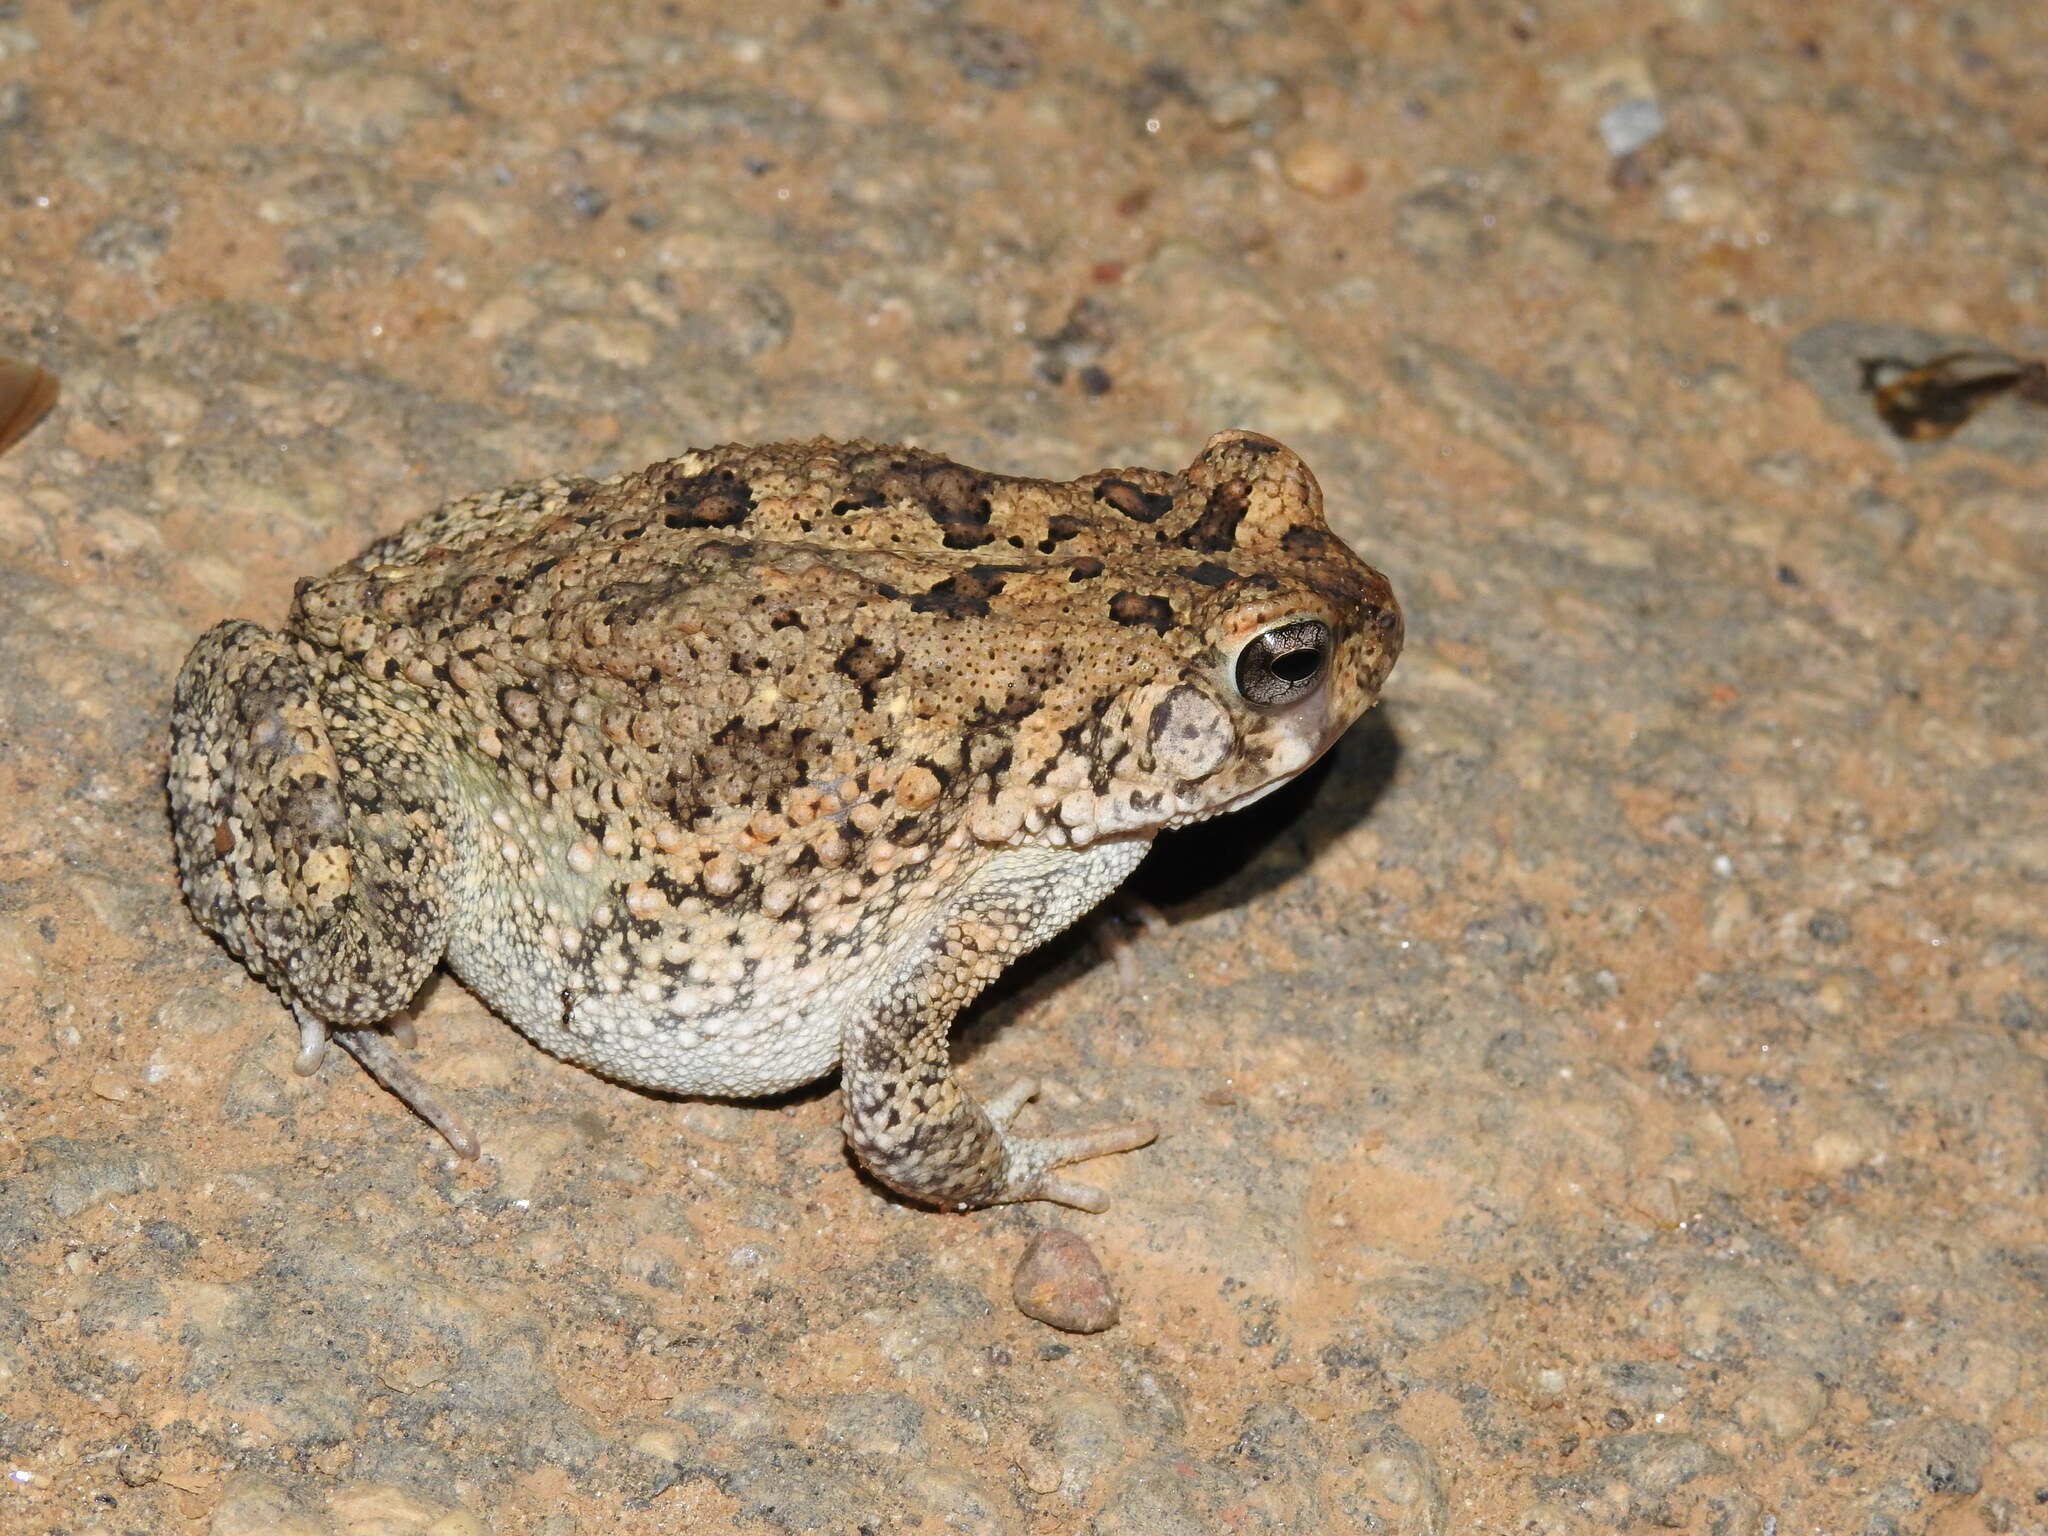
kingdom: Animalia
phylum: Chordata
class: Amphibia
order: Anura
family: Bufonidae
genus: Sclerophrys
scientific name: Sclerophrys maculata
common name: Hallowell's toad
